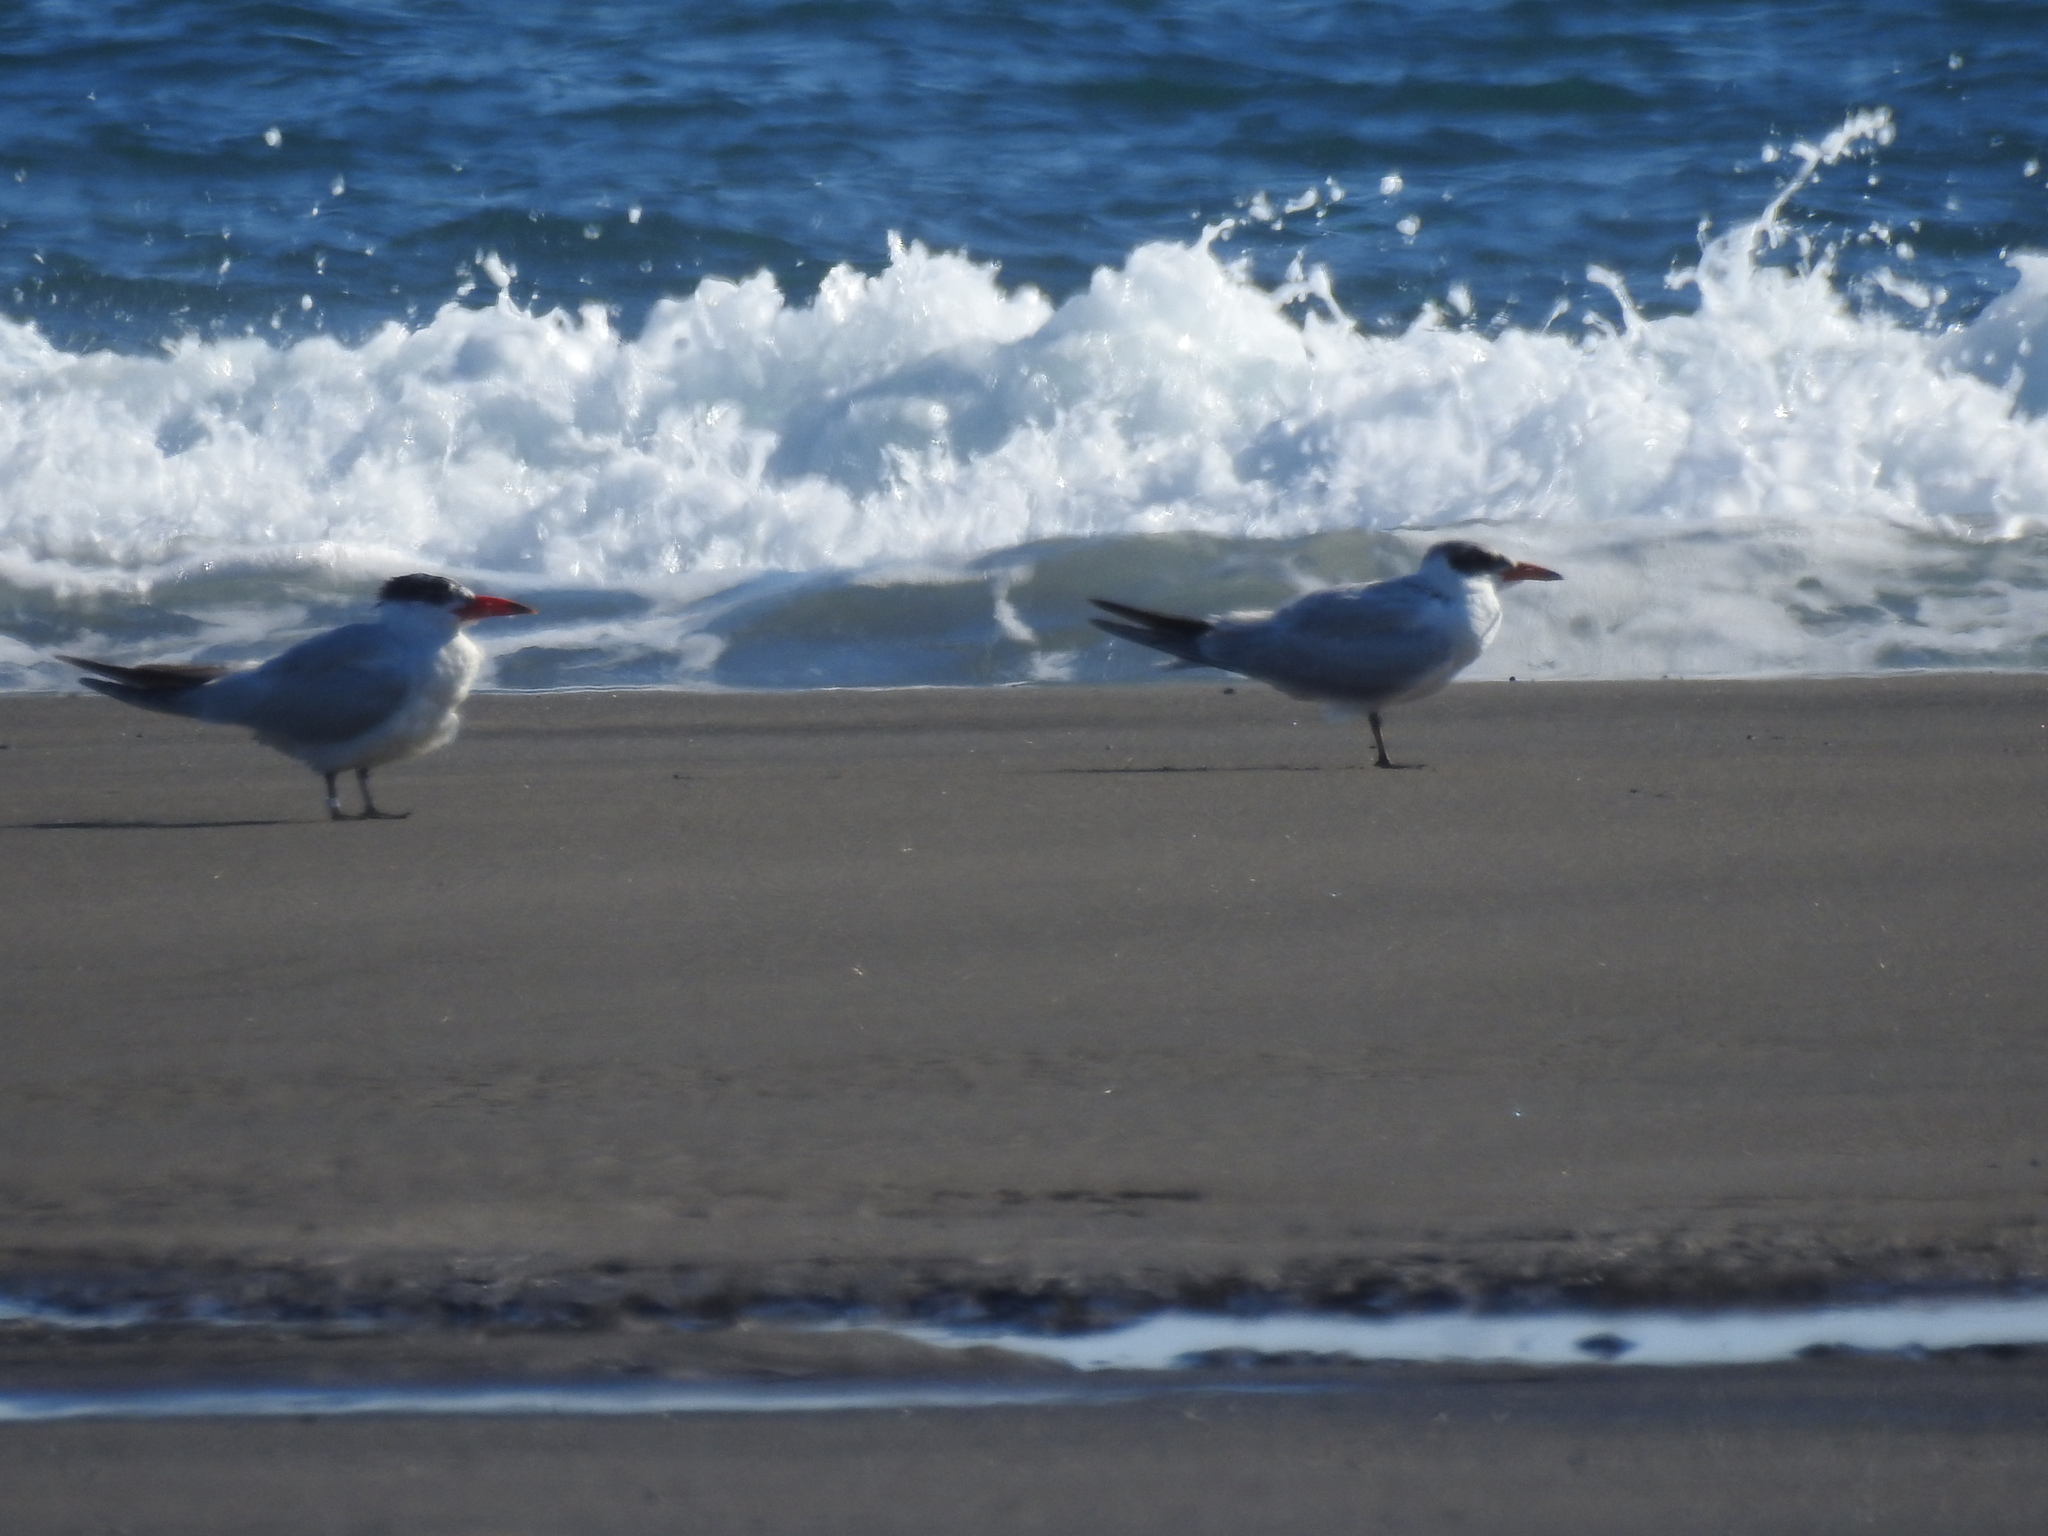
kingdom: Animalia
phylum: Chordata
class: Aves
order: Charadriiformes
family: Laridae
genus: Hydroprogne
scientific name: Hydroprogne caspia
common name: Caspian tern
